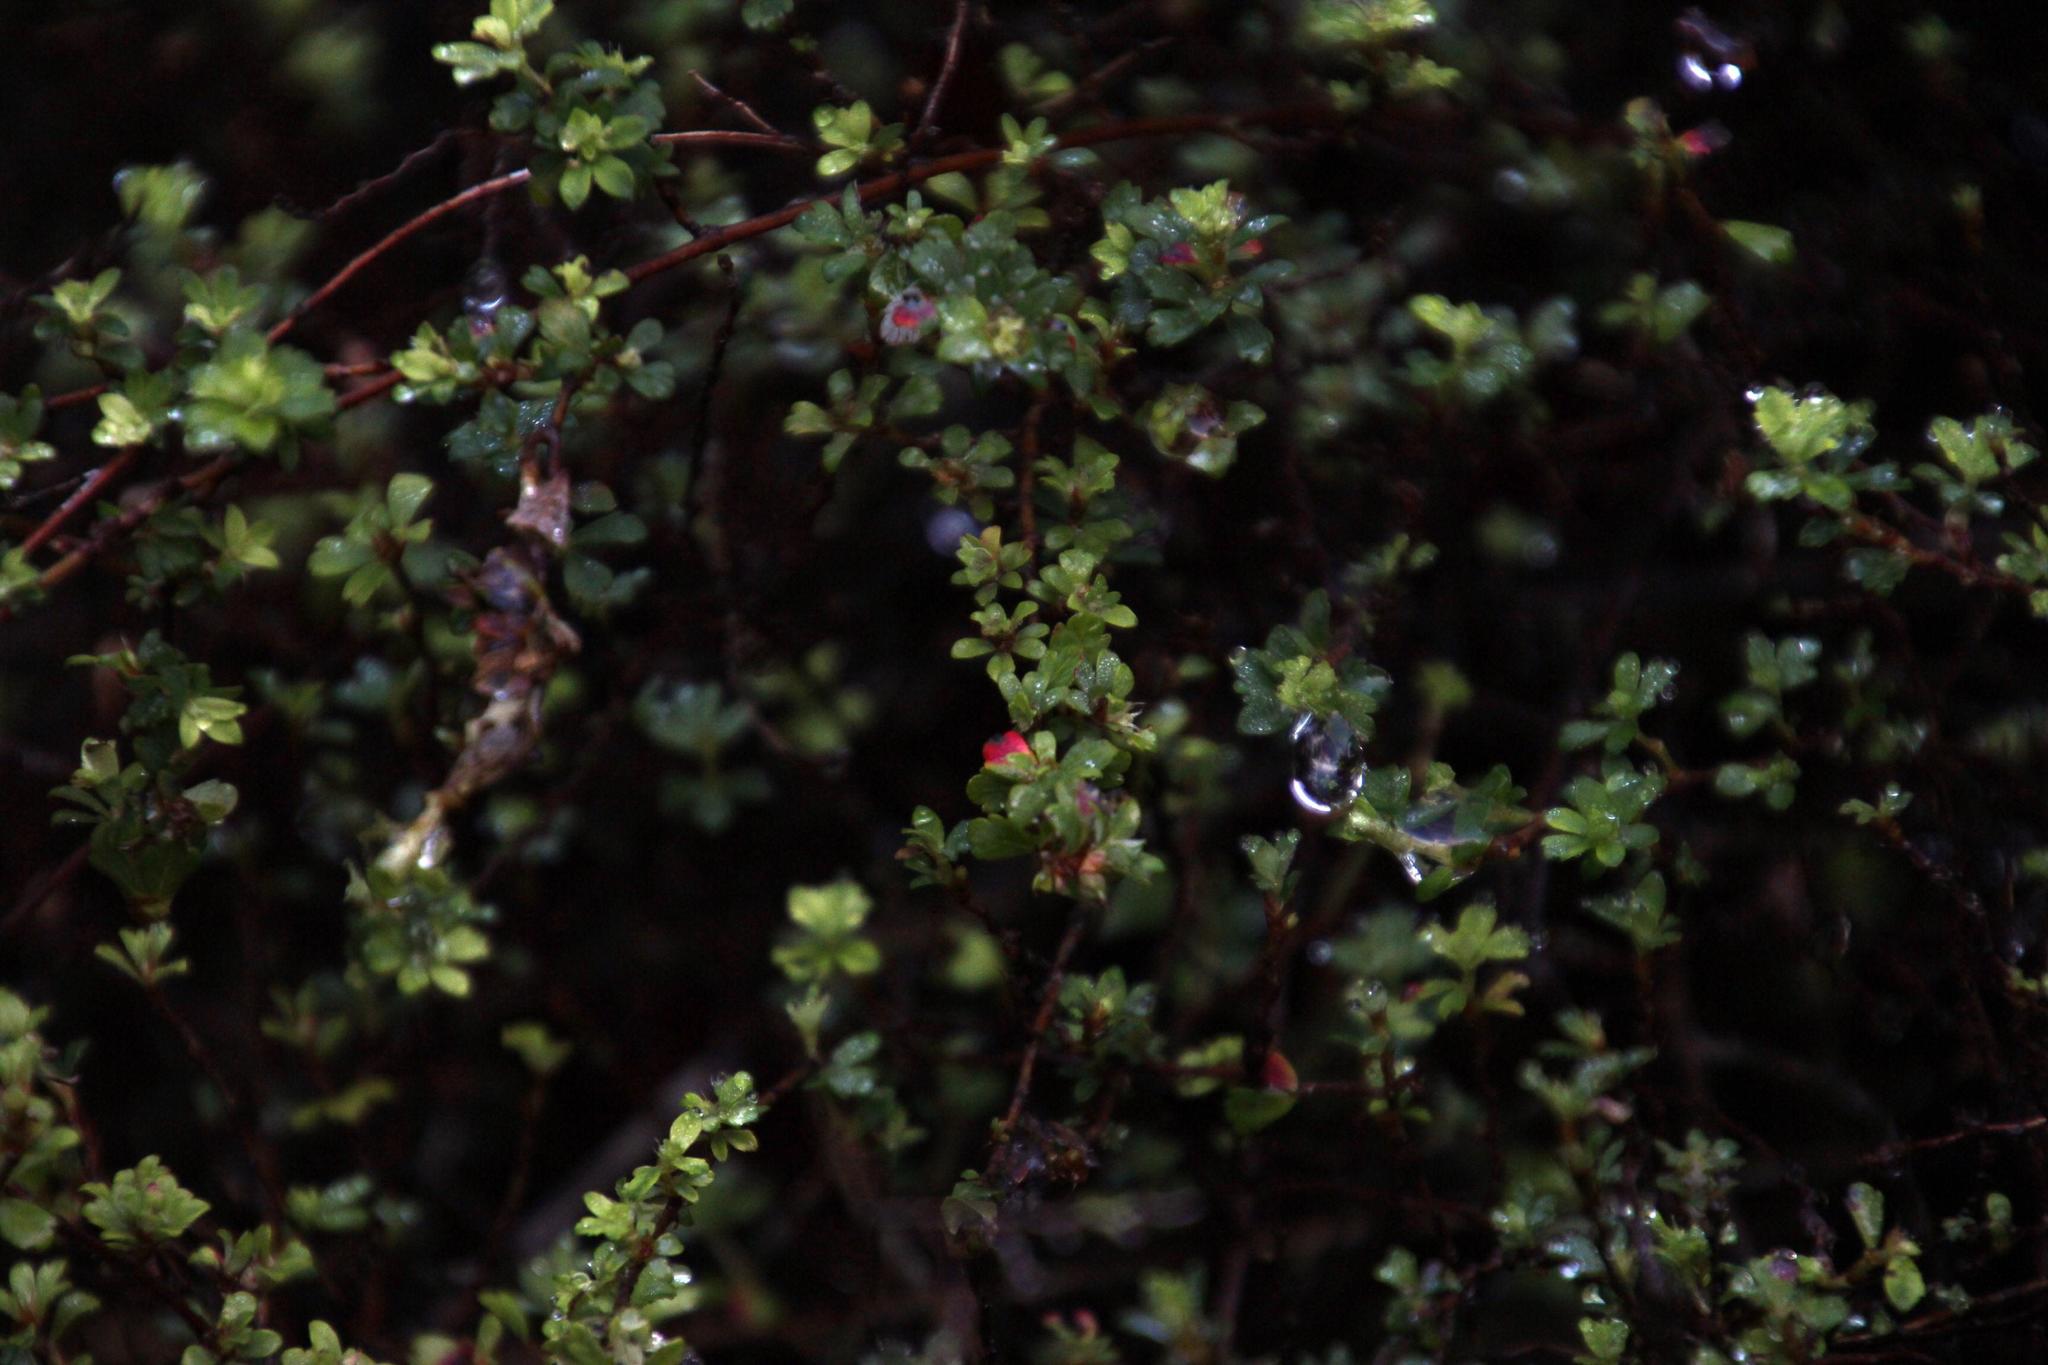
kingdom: Plantae
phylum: Tracheophyta
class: Magnoliopsida
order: Rosales
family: Rosaceae
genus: Cliffortia
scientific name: Cliffortia dentata
